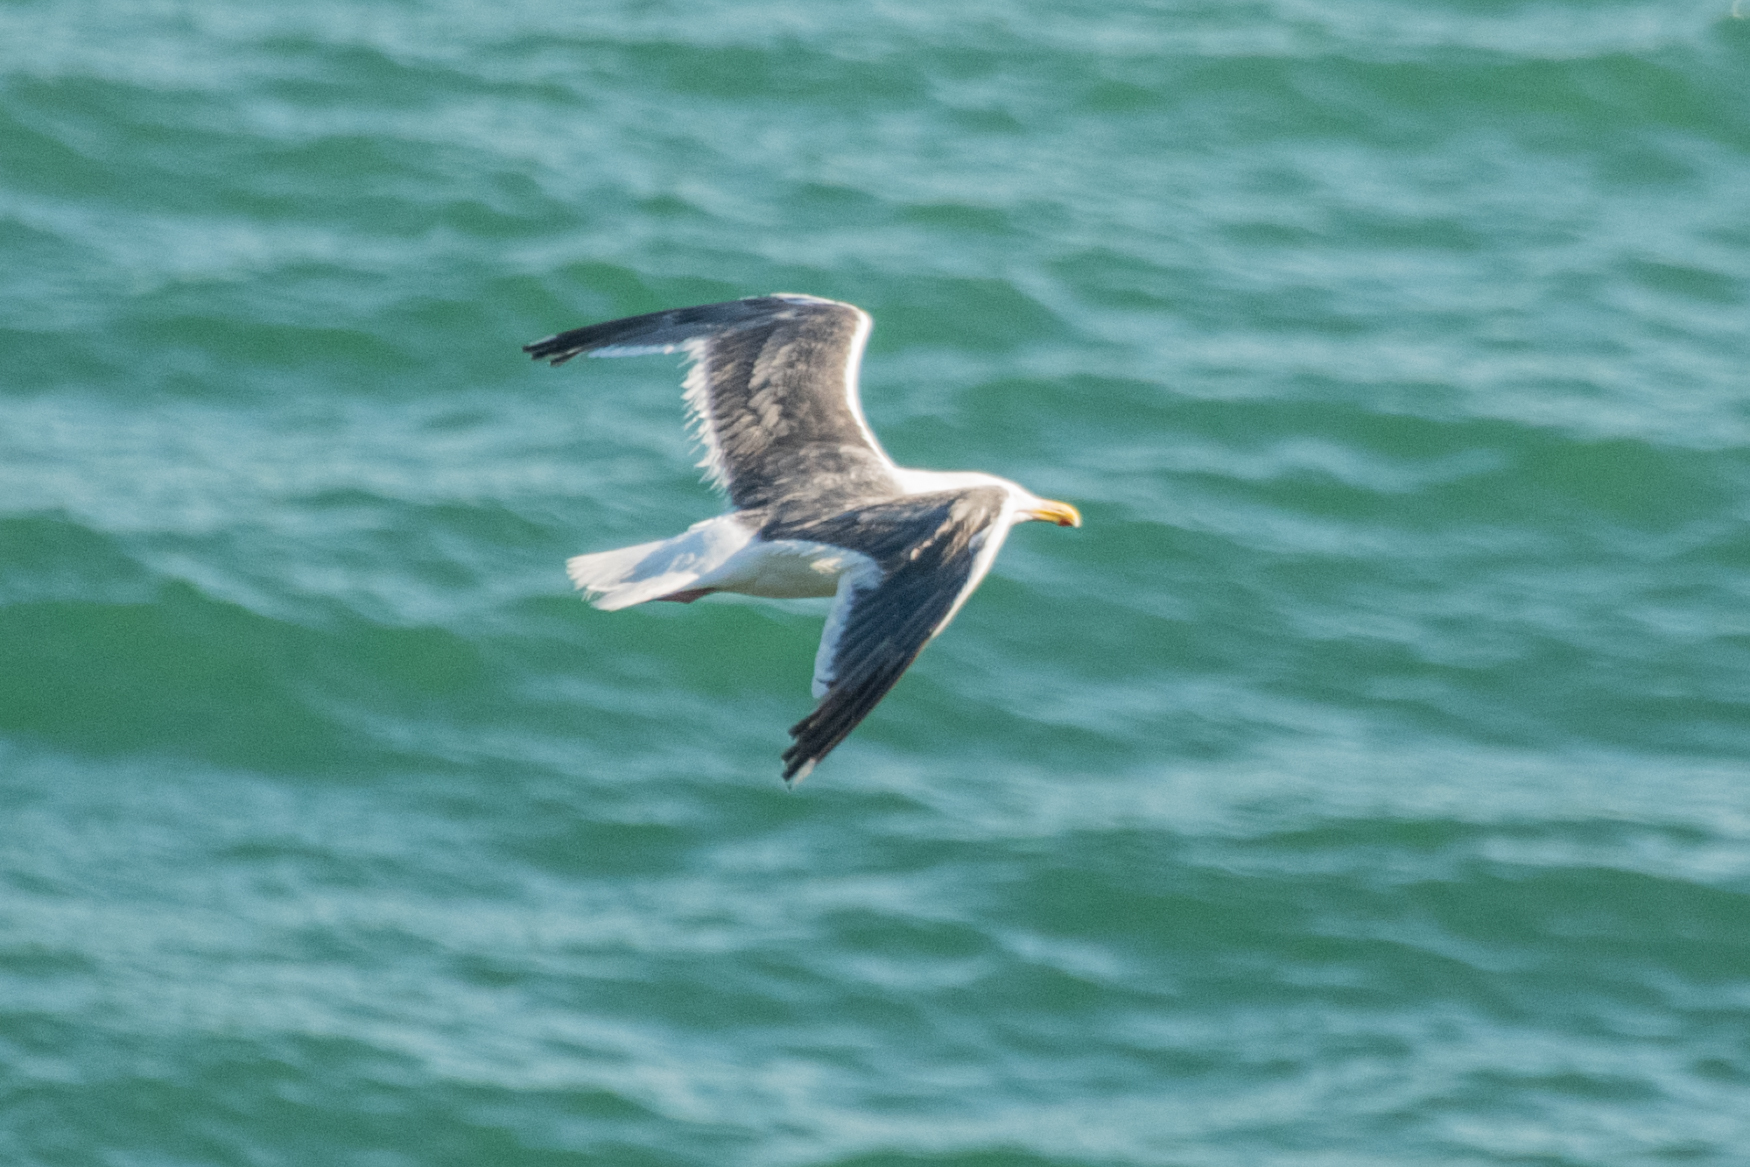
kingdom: Animalia
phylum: Chordata
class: Aves
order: Charadriiformes
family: Laridae
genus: Larus
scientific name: Larus schistisagus
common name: Slaty-backed gull
